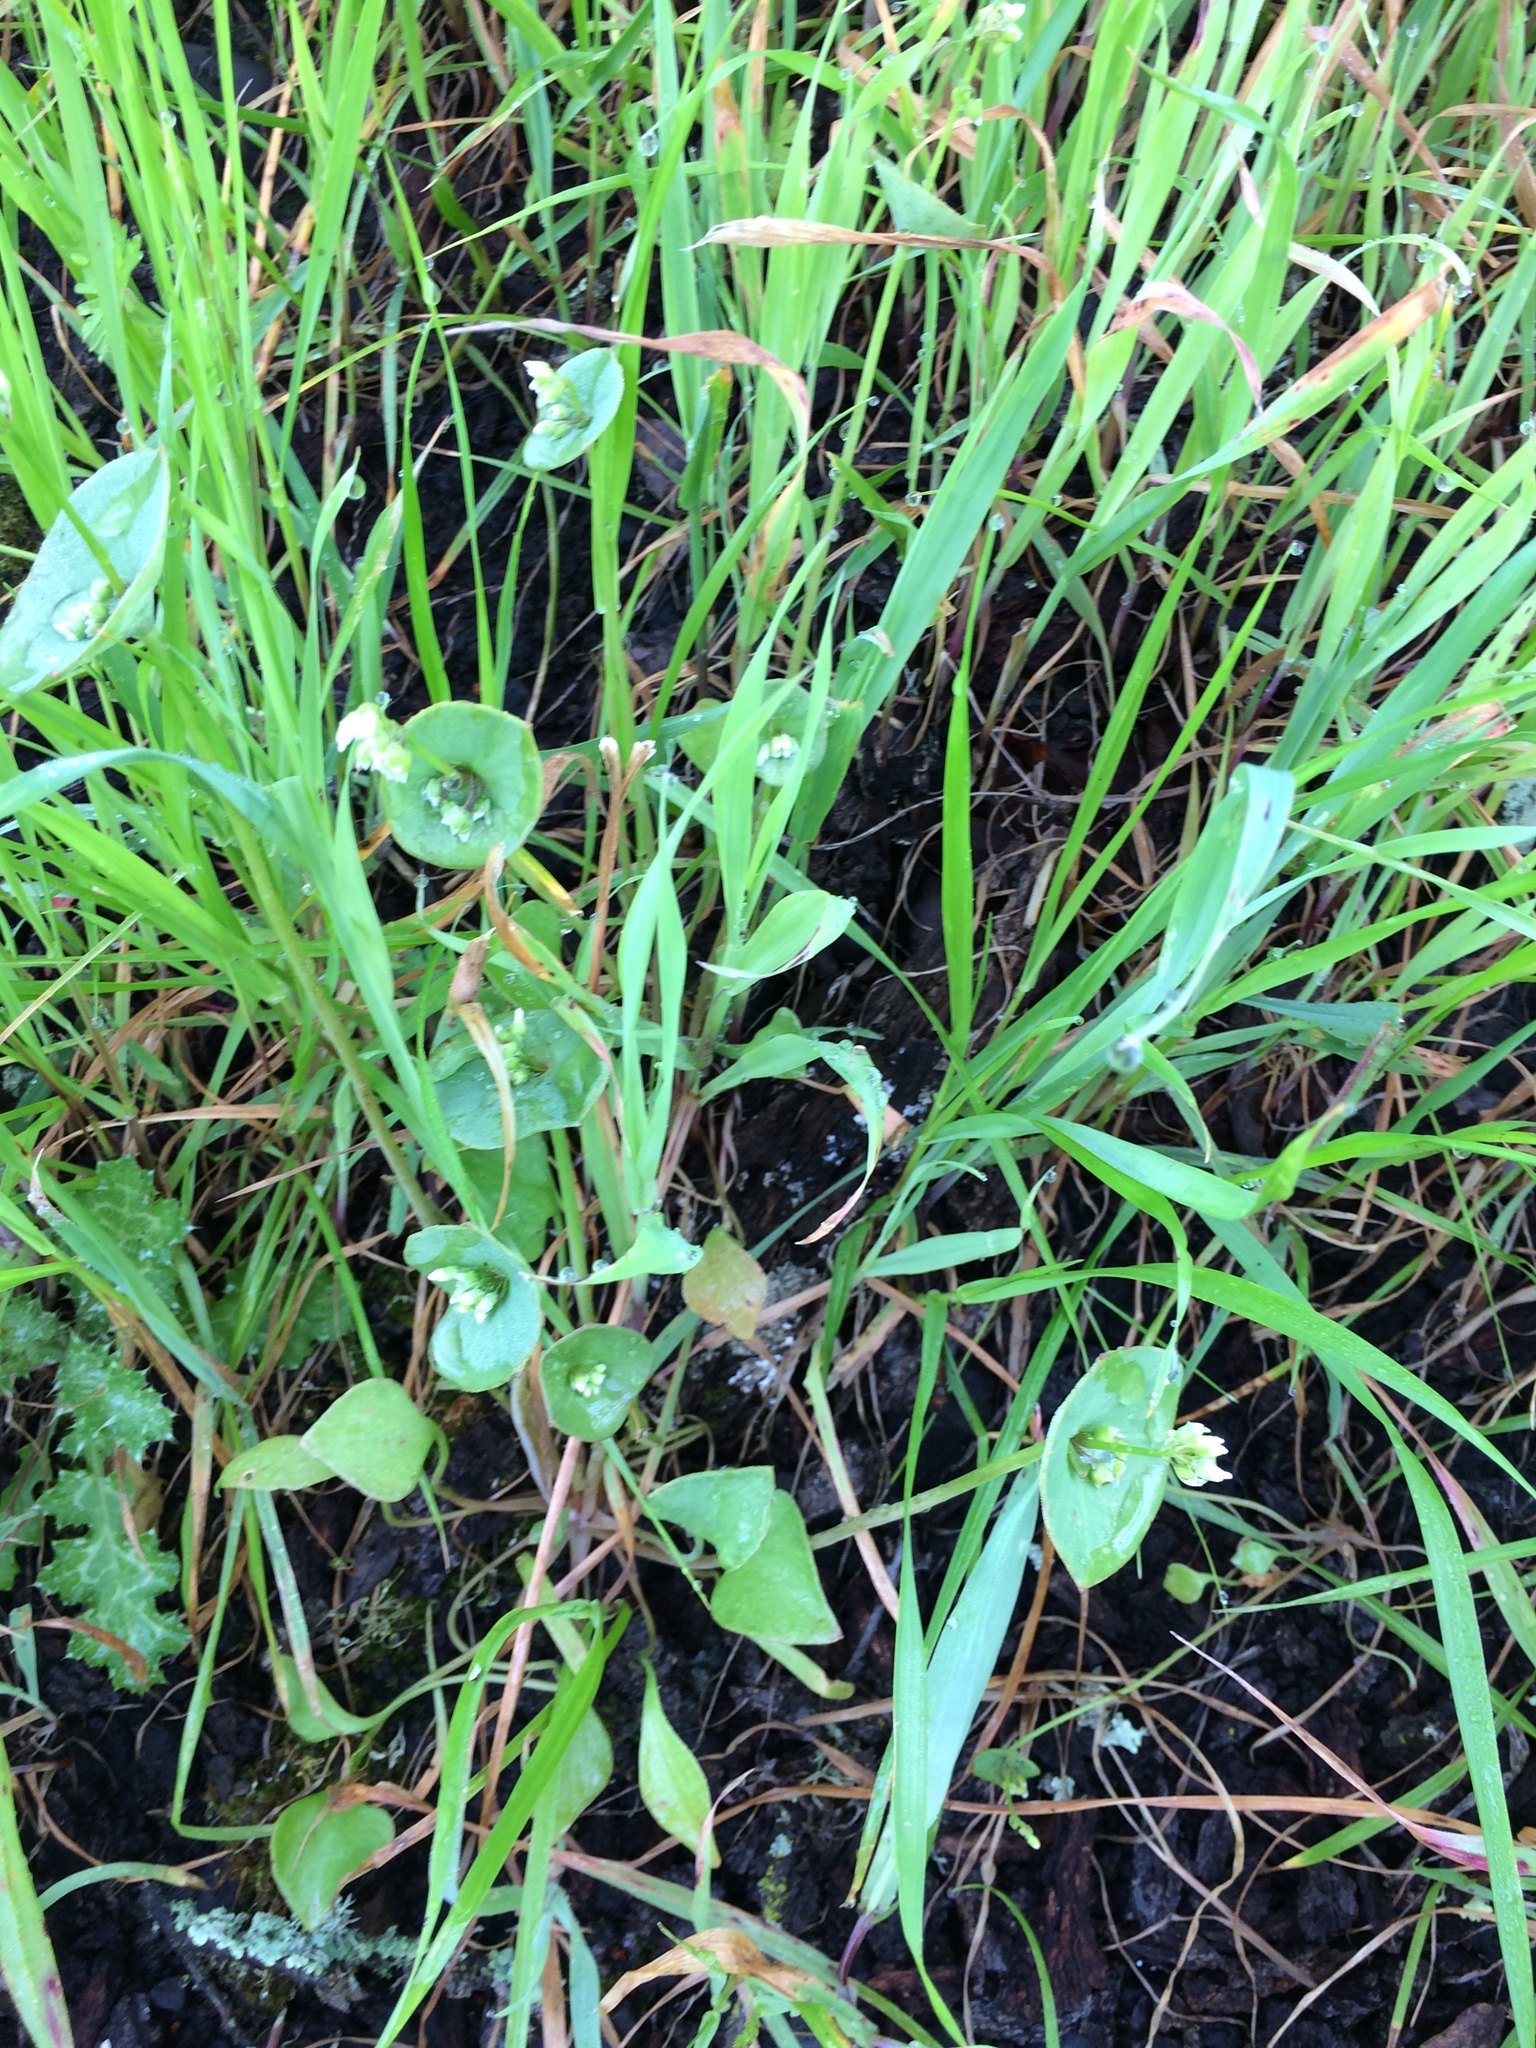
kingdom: Plantae
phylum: Tracheophyta
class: Magnoliopsida
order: Caryophyllales
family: Montiaceae
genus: Claytonia
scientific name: Claytonia perfoliata
